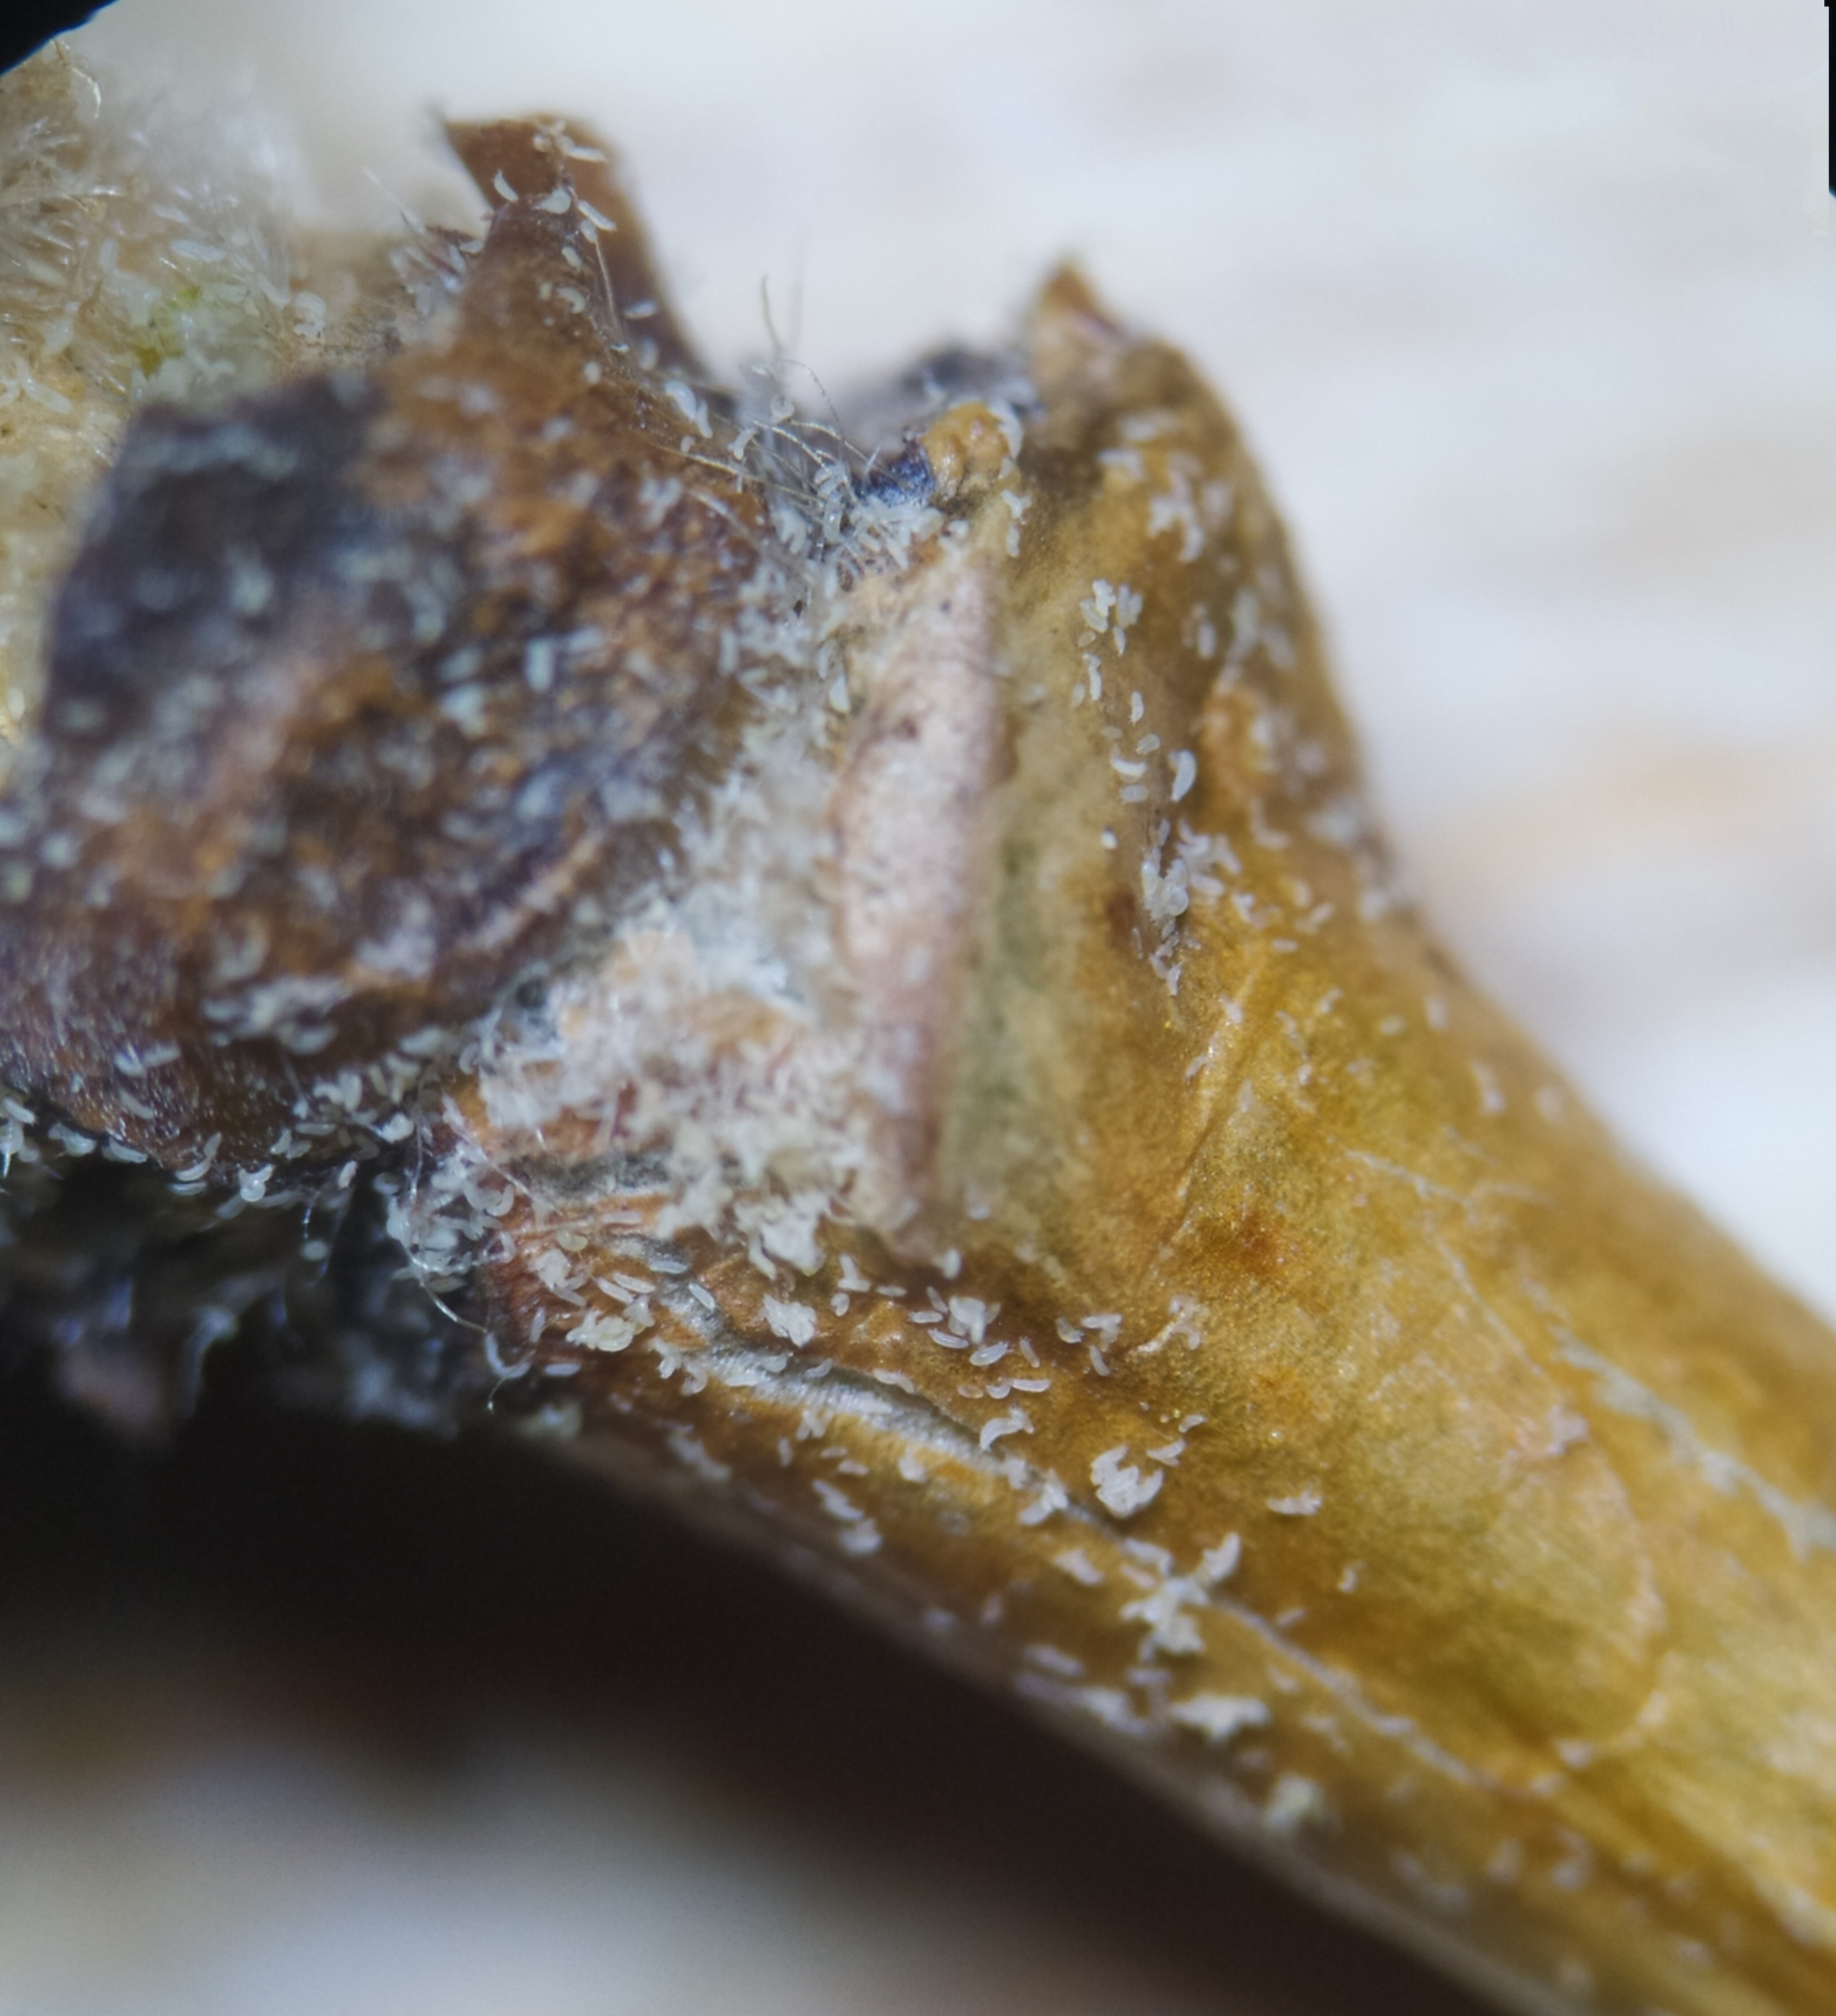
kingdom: Animalia
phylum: Arthropoda
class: Arachnida
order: Trombidiformes
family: Phytoptidae
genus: Phytoptus
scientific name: Phytoptus avellanae
